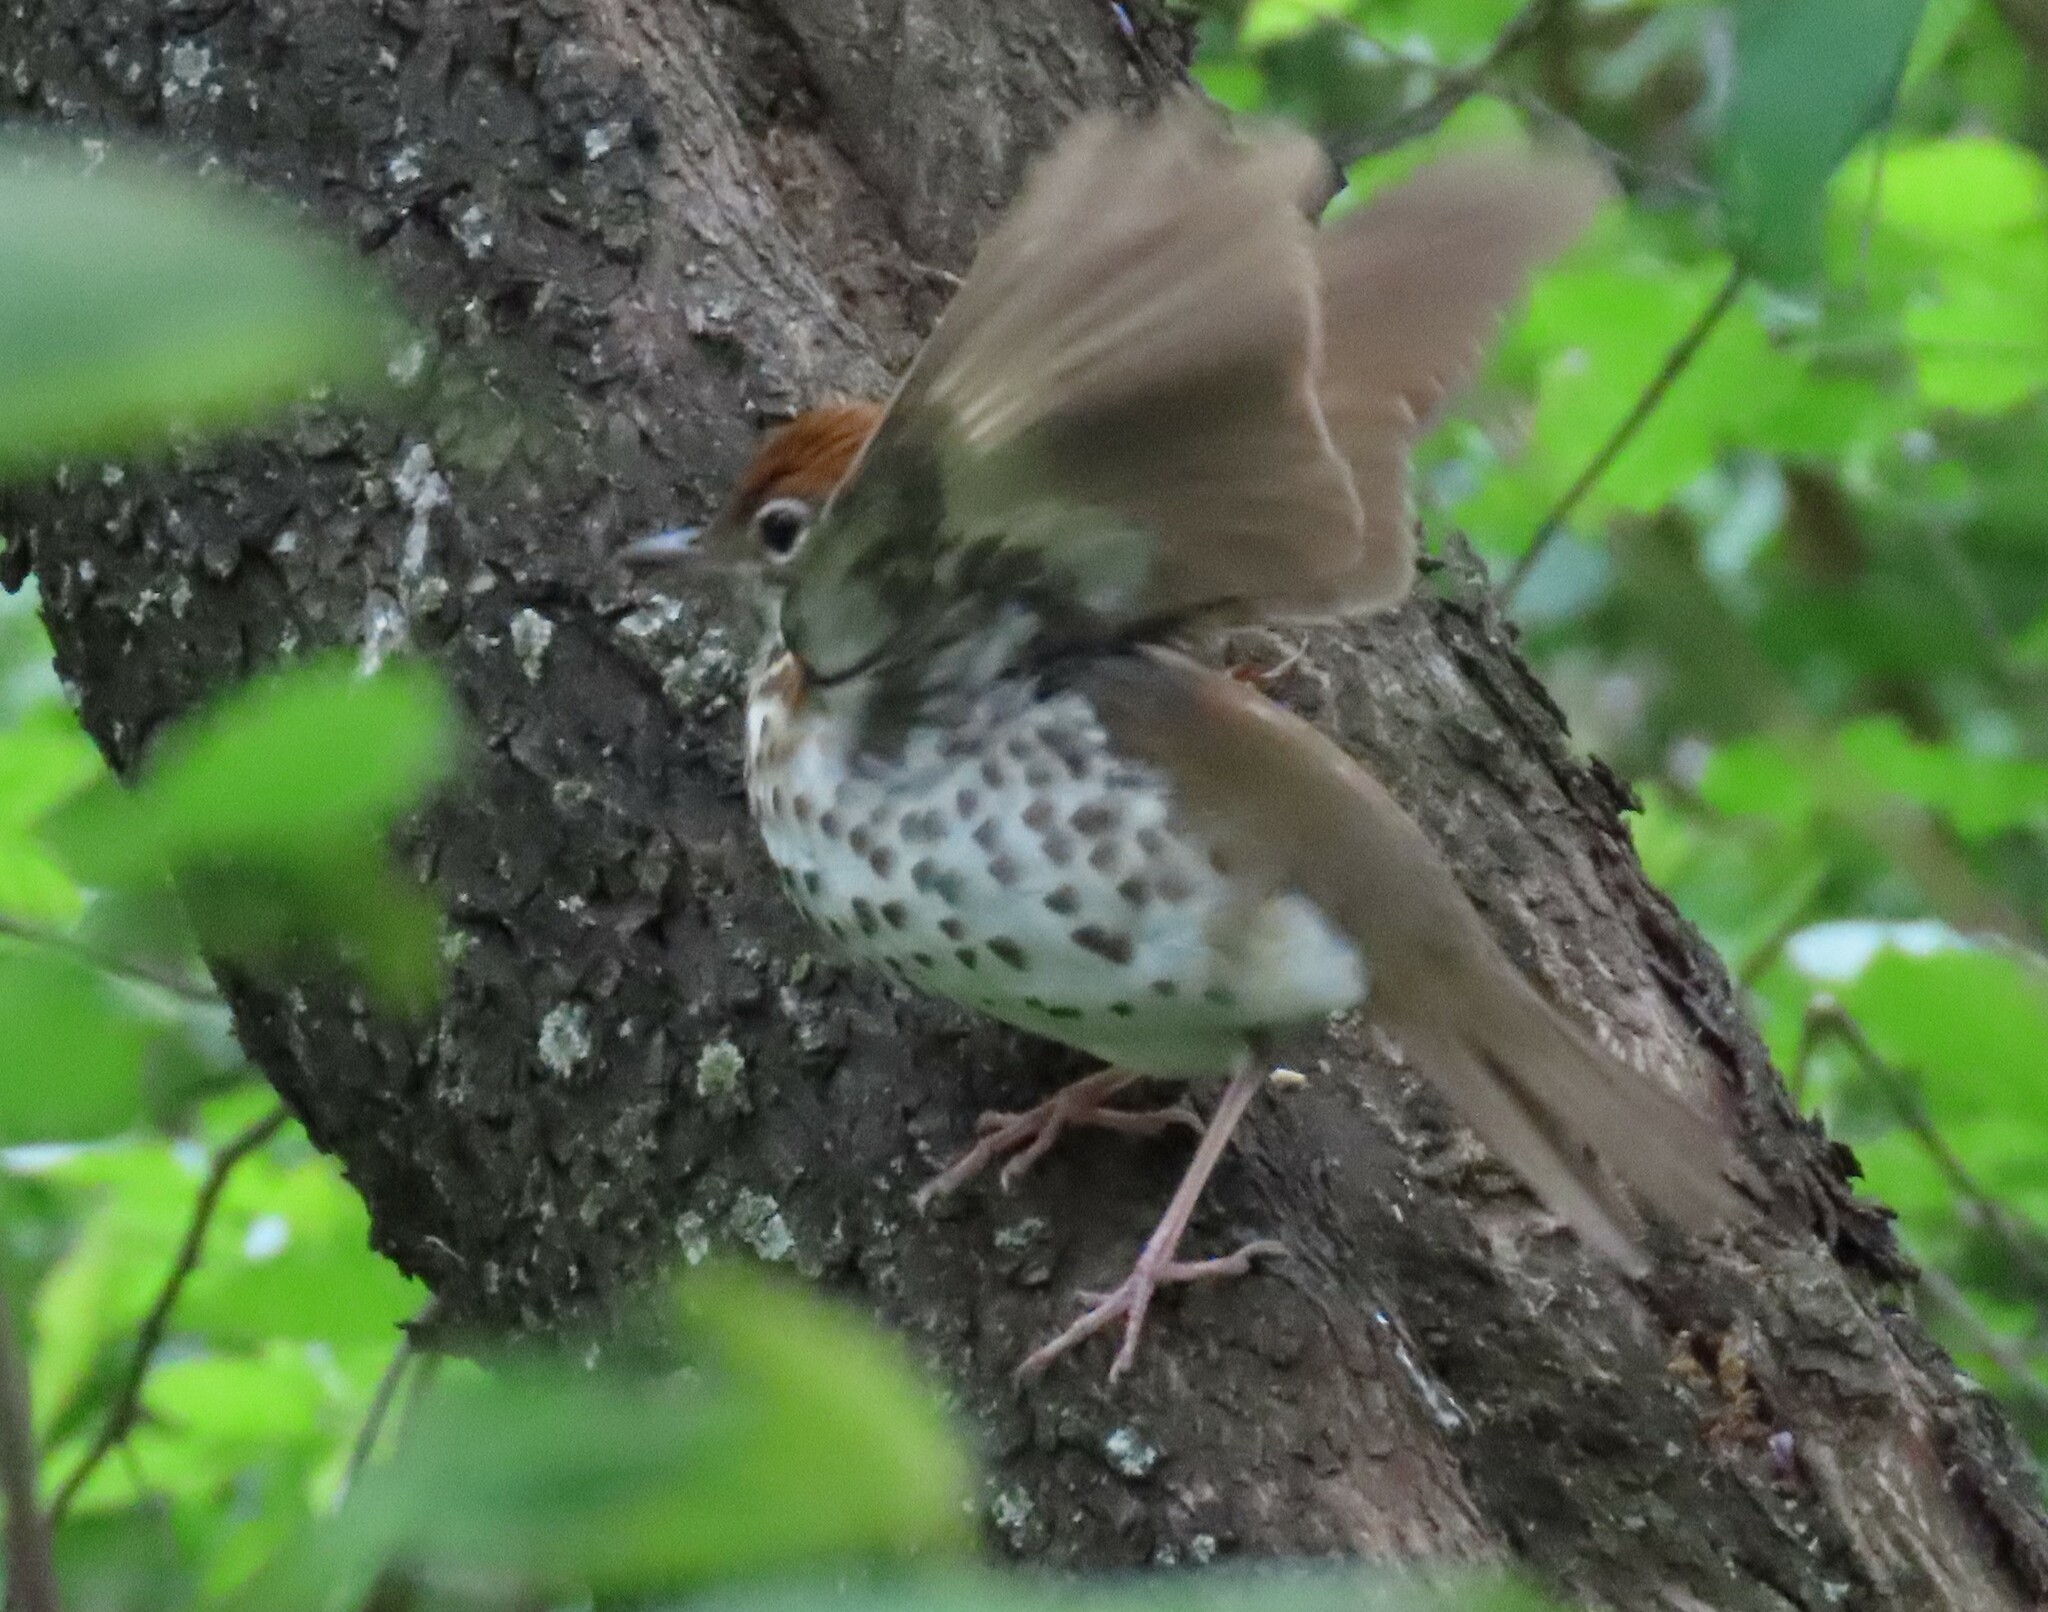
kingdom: Animalia
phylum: Chordata
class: Aves
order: Passeriformes
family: Turdidae
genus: Hylocichla
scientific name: Hylocichla mustelina
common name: Wood thrush
